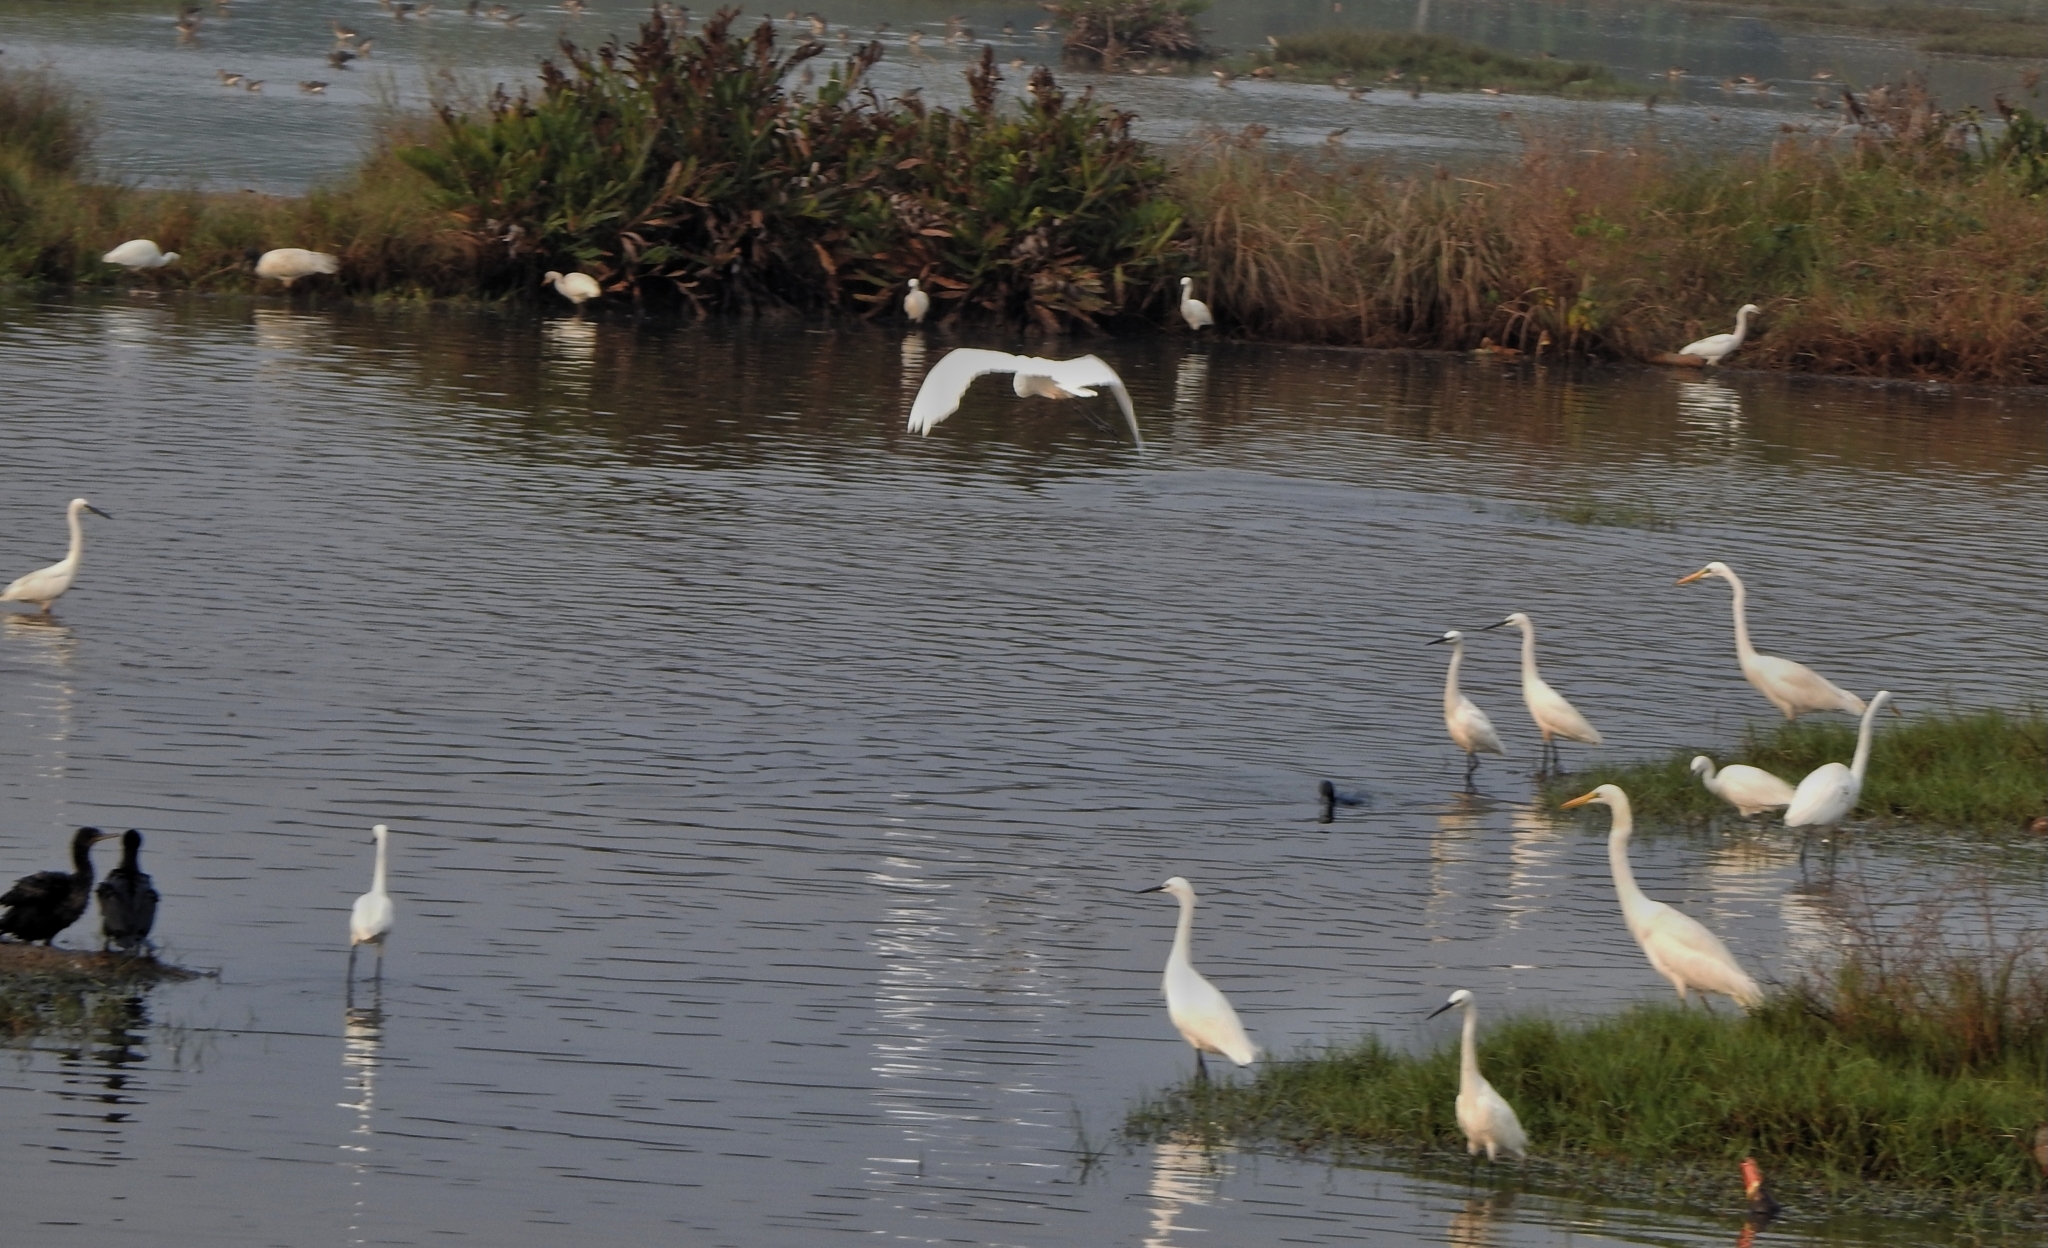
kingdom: Animalia
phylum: Chordata
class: Aves
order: Pelecaniformes
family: Ardeidae
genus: Ardea
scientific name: Ardea alba
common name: Great egret
